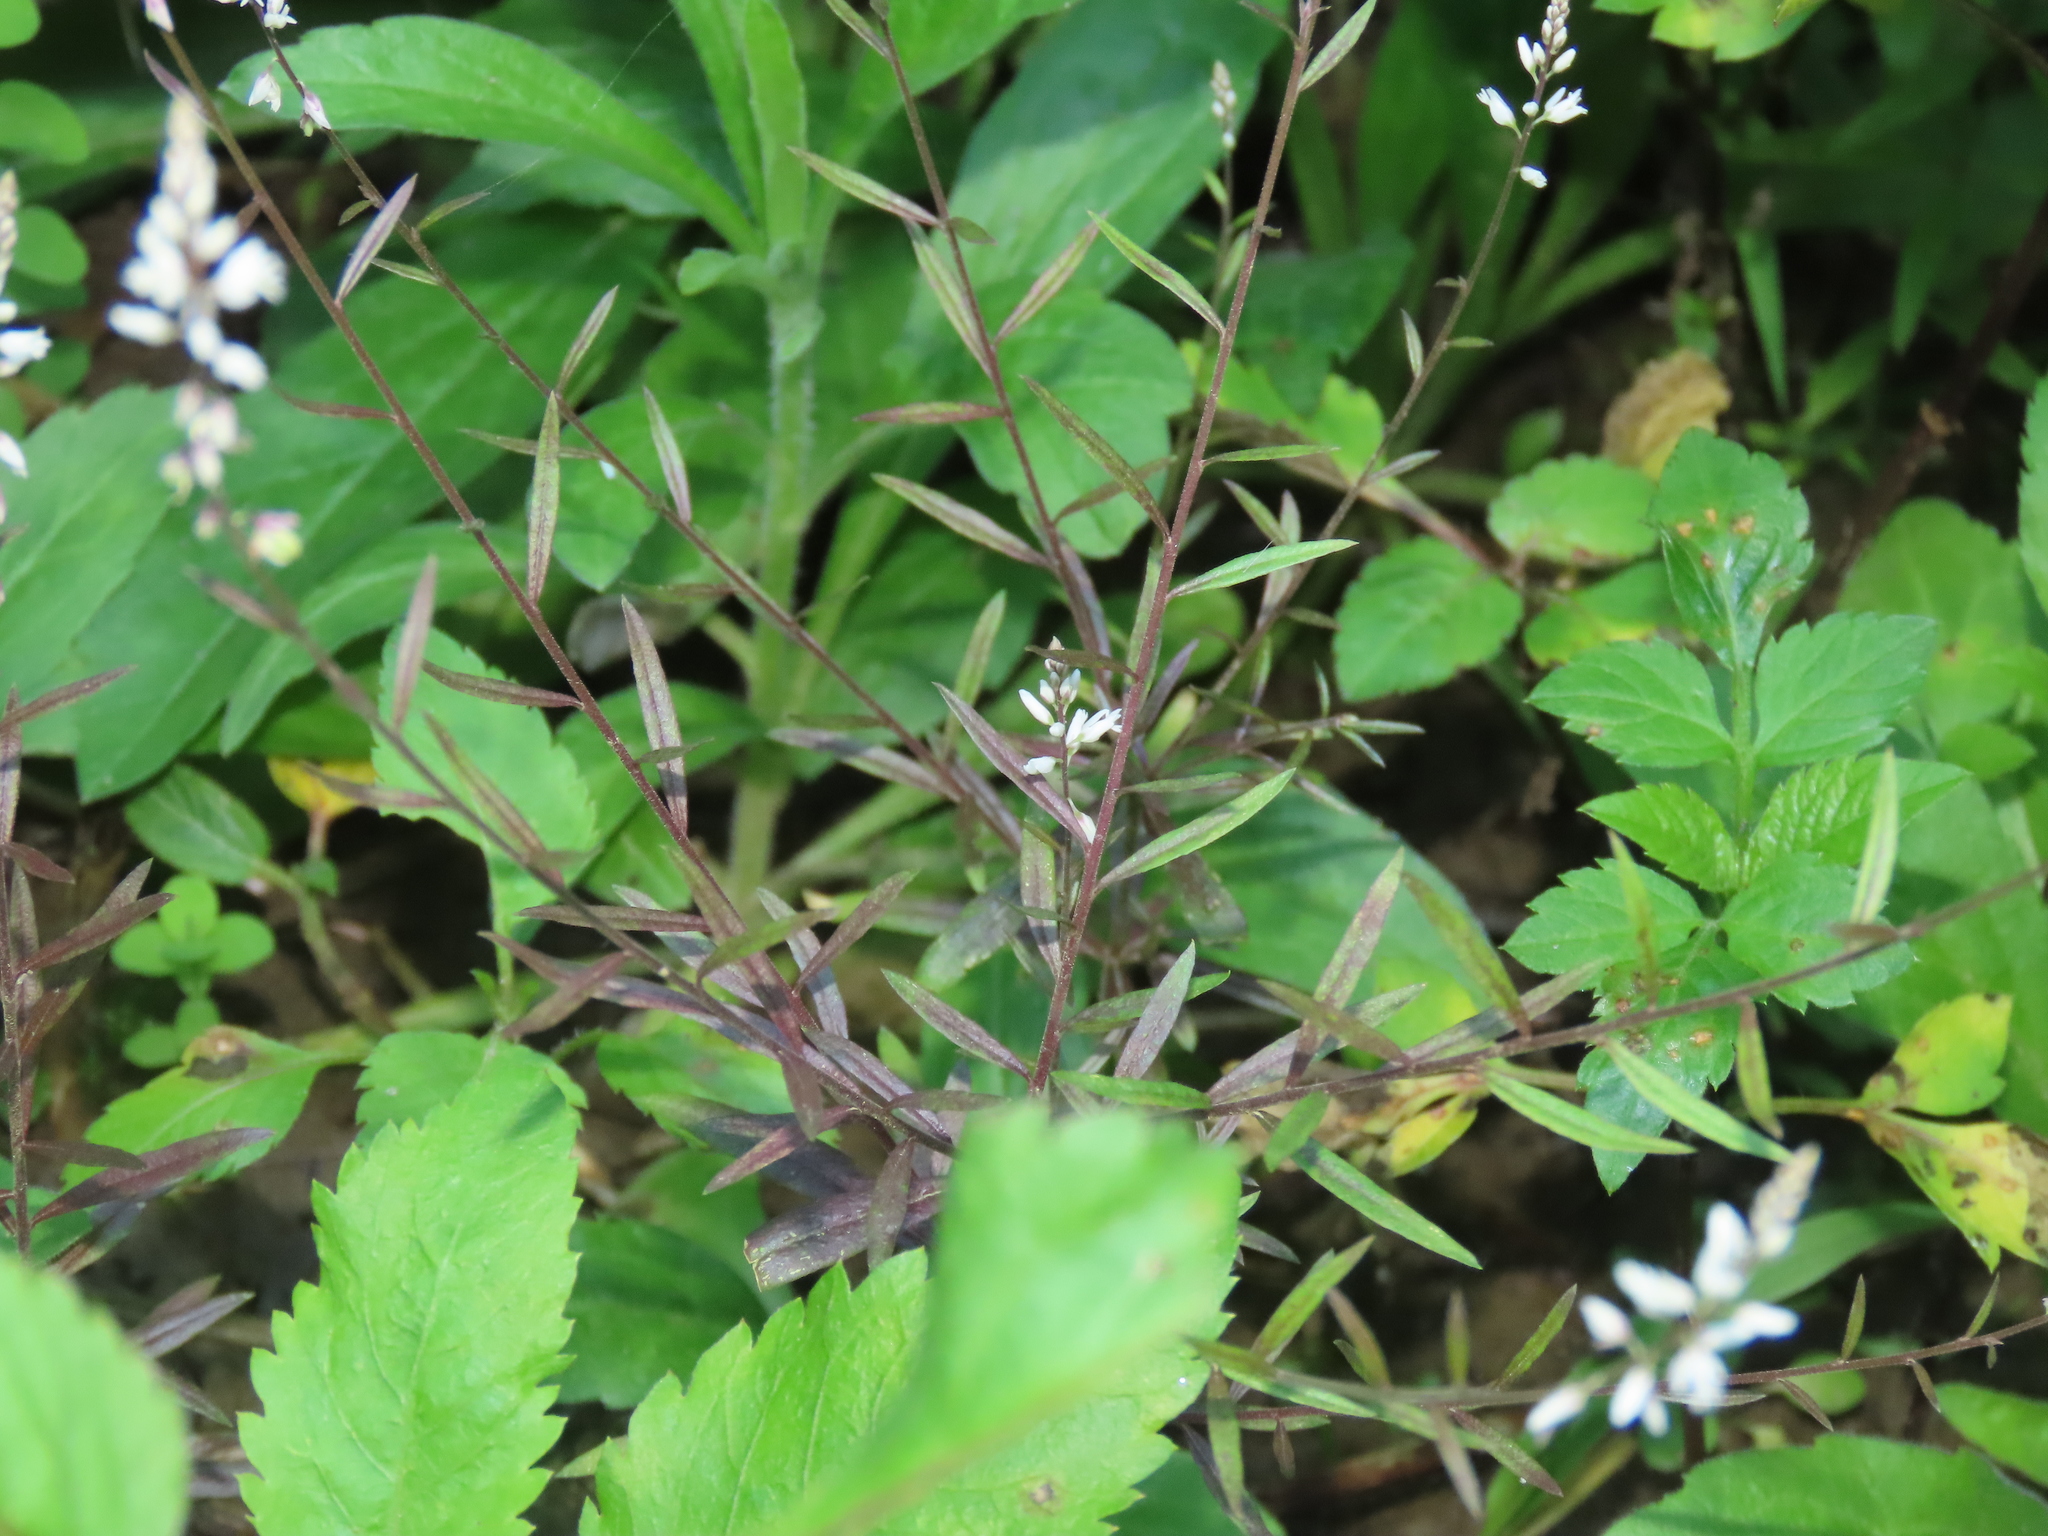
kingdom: Plantae
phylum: Tracheophyta
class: Magnoliopsida
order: Fabales
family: Polygalaceae
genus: Polygala
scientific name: Polygala paniculata
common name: Orosne
